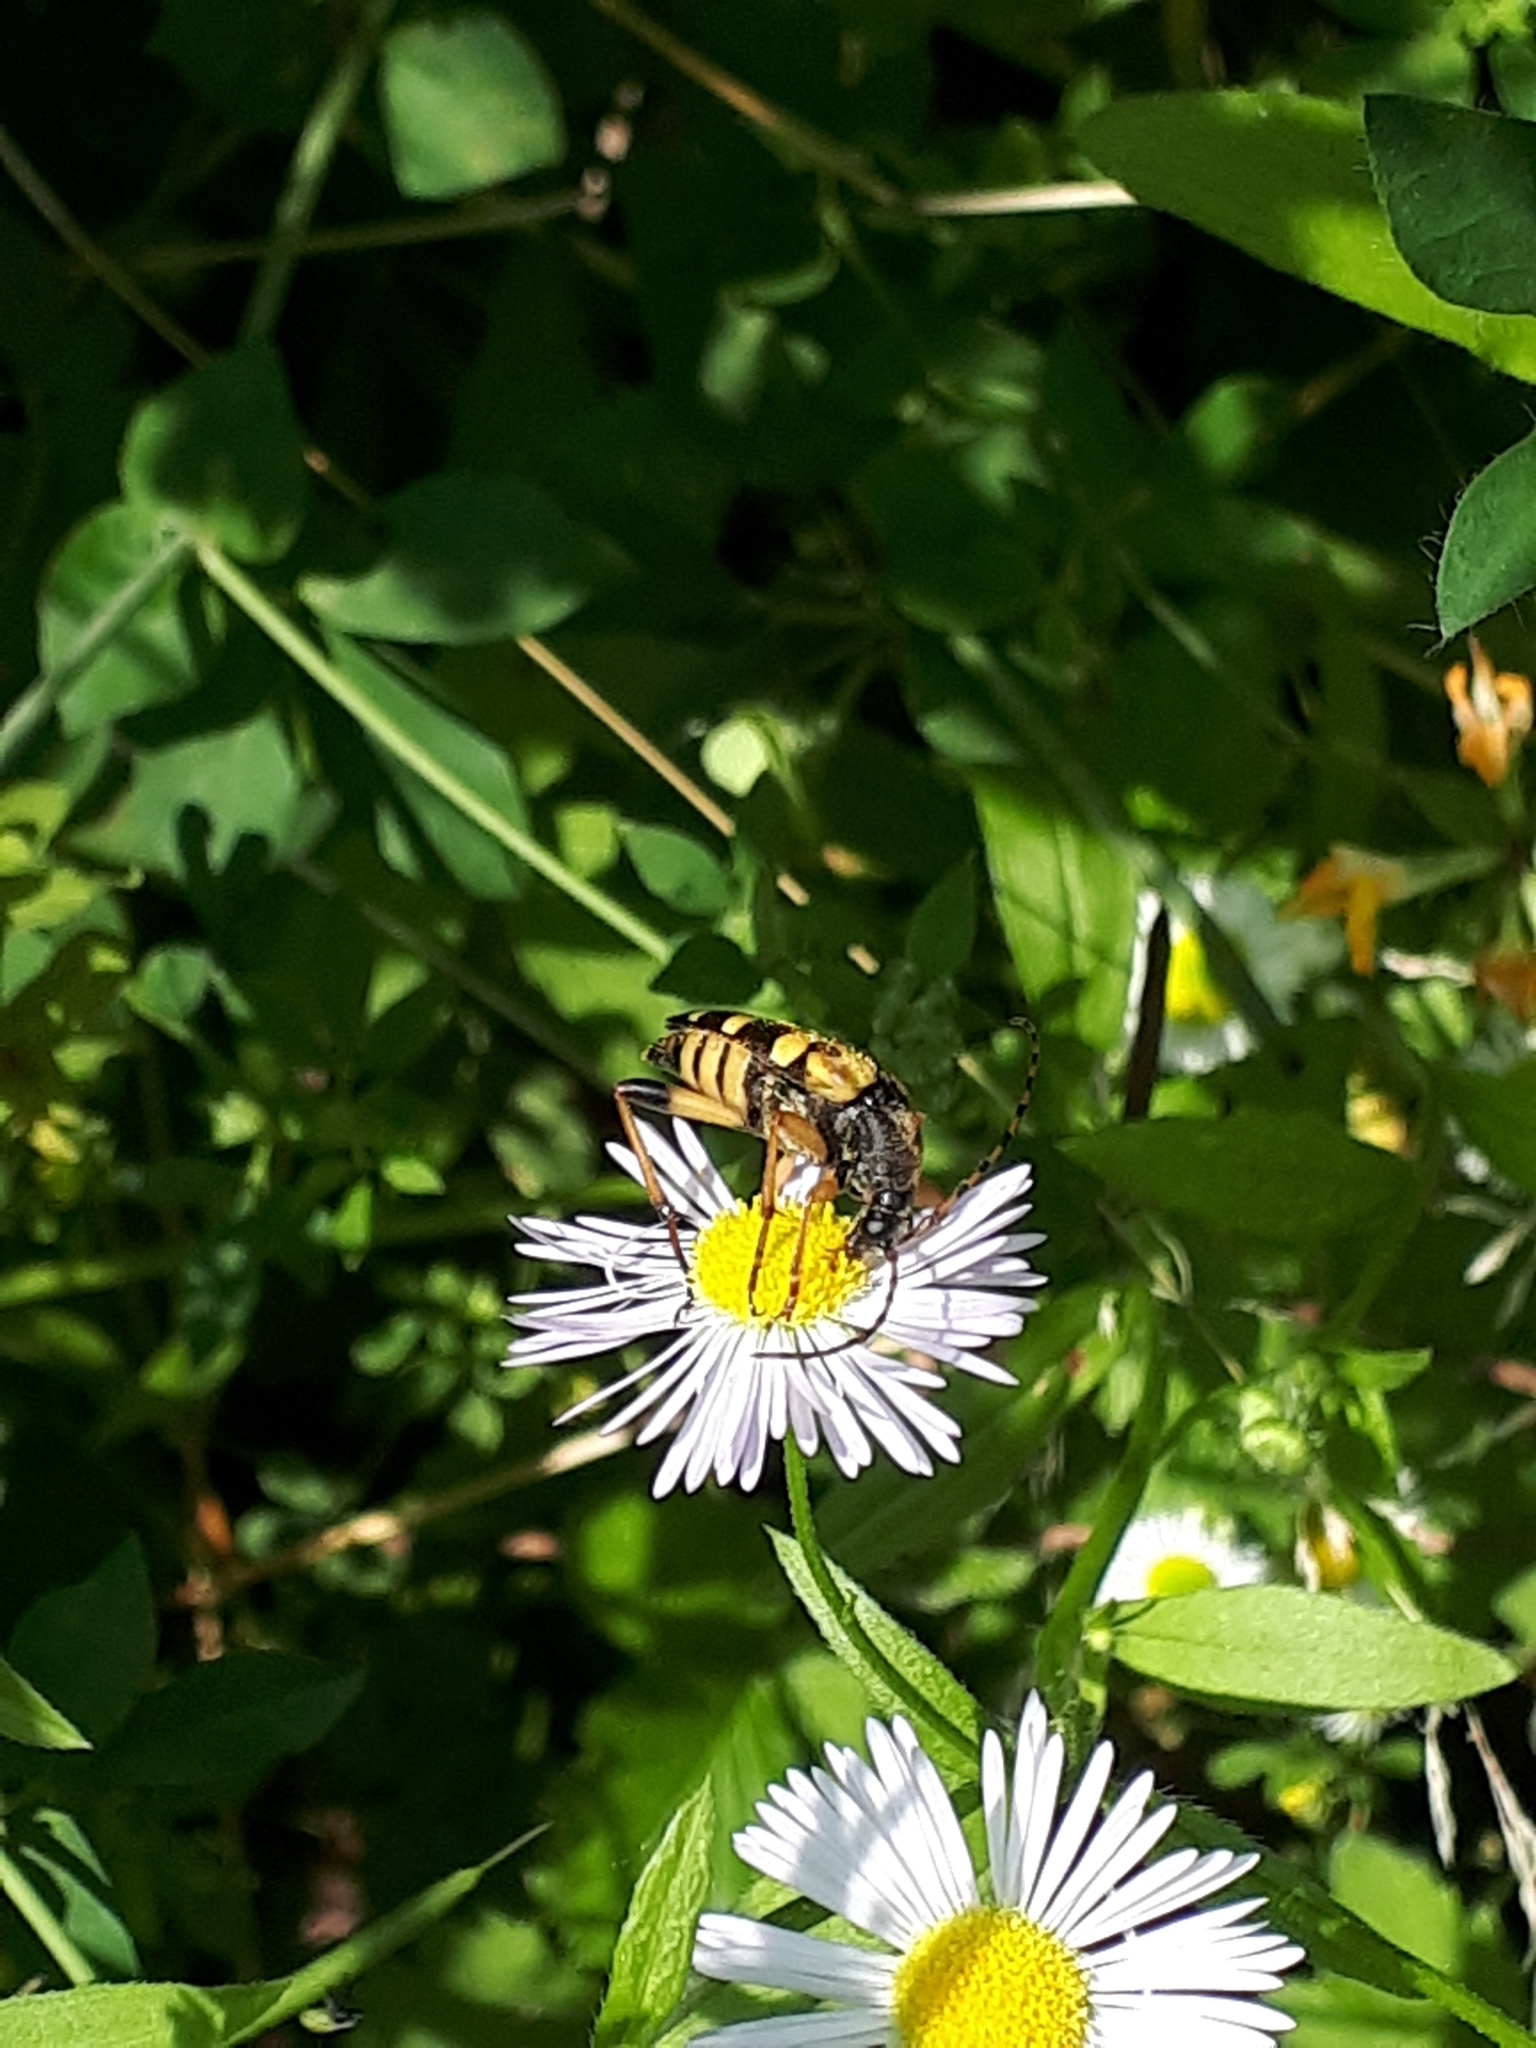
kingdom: Animalia
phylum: Arthropoda
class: Insecta
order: Coleoptera
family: Cerambycidae
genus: Rutpela
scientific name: Rutpela maculata
